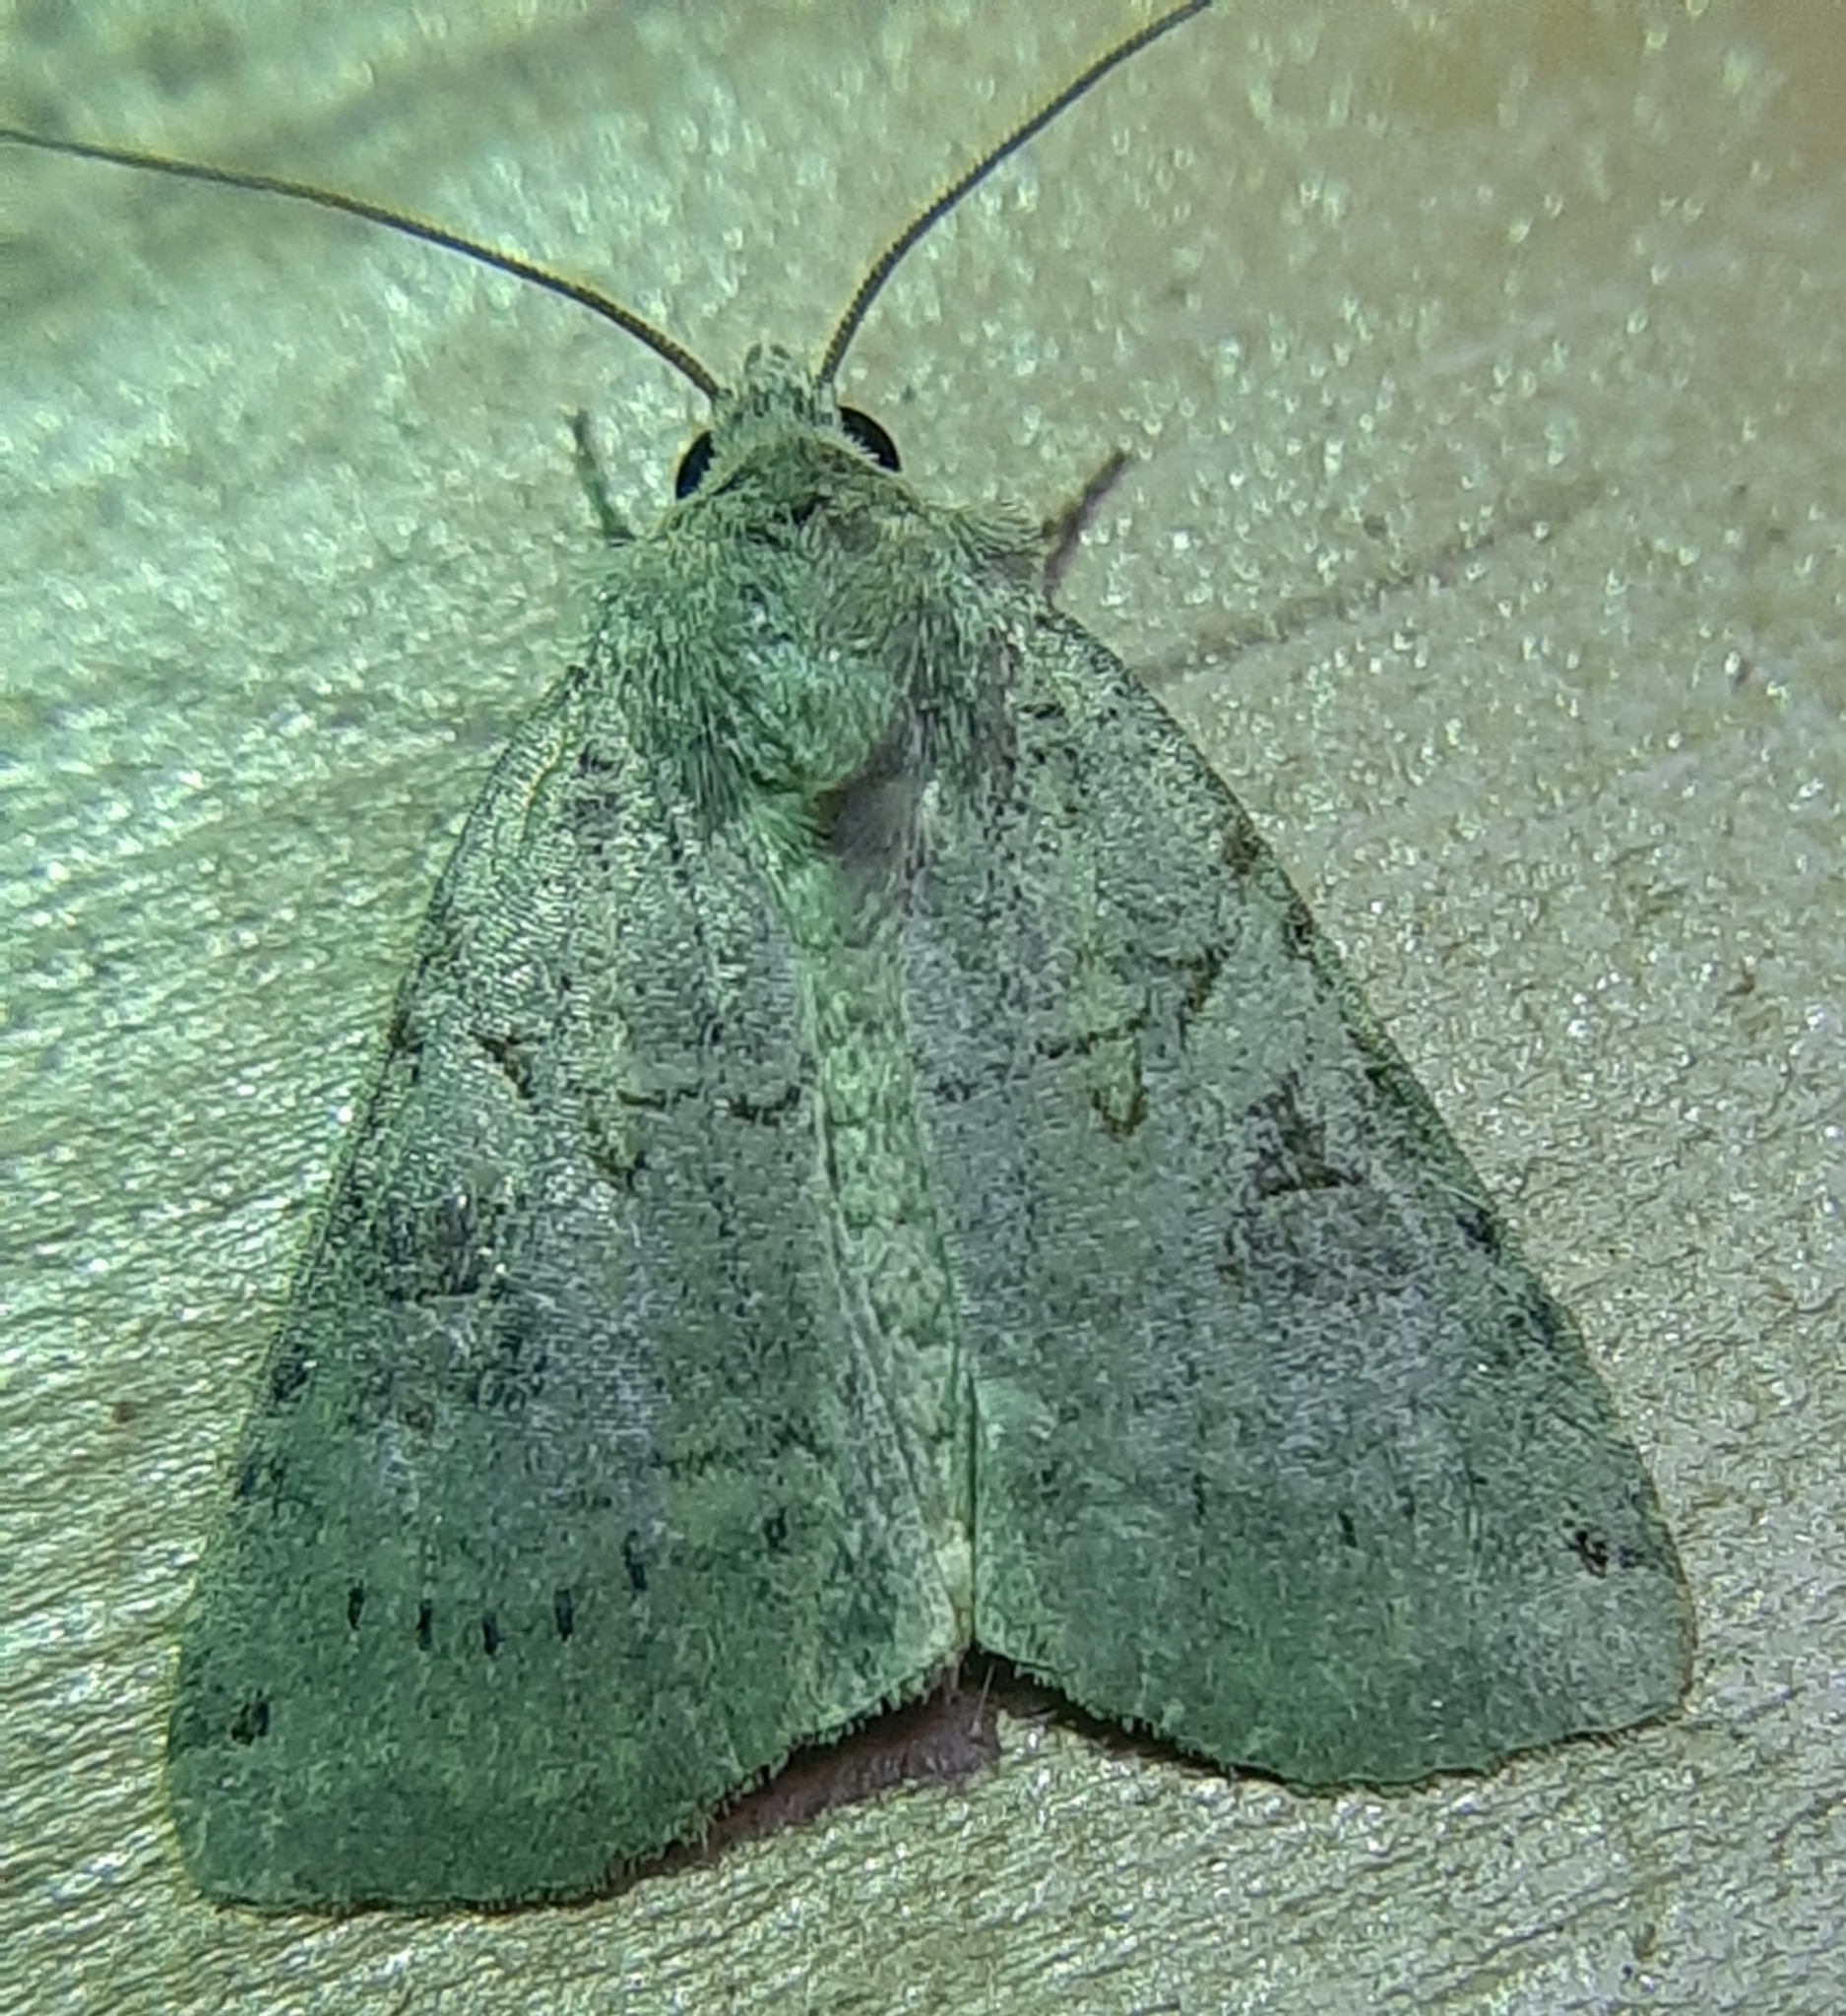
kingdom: Animalia
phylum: Arthropoda
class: Insecta
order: Lepidoptera
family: Noctuidae
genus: Xestia
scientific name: Xestia smithii
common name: Smith's dart
